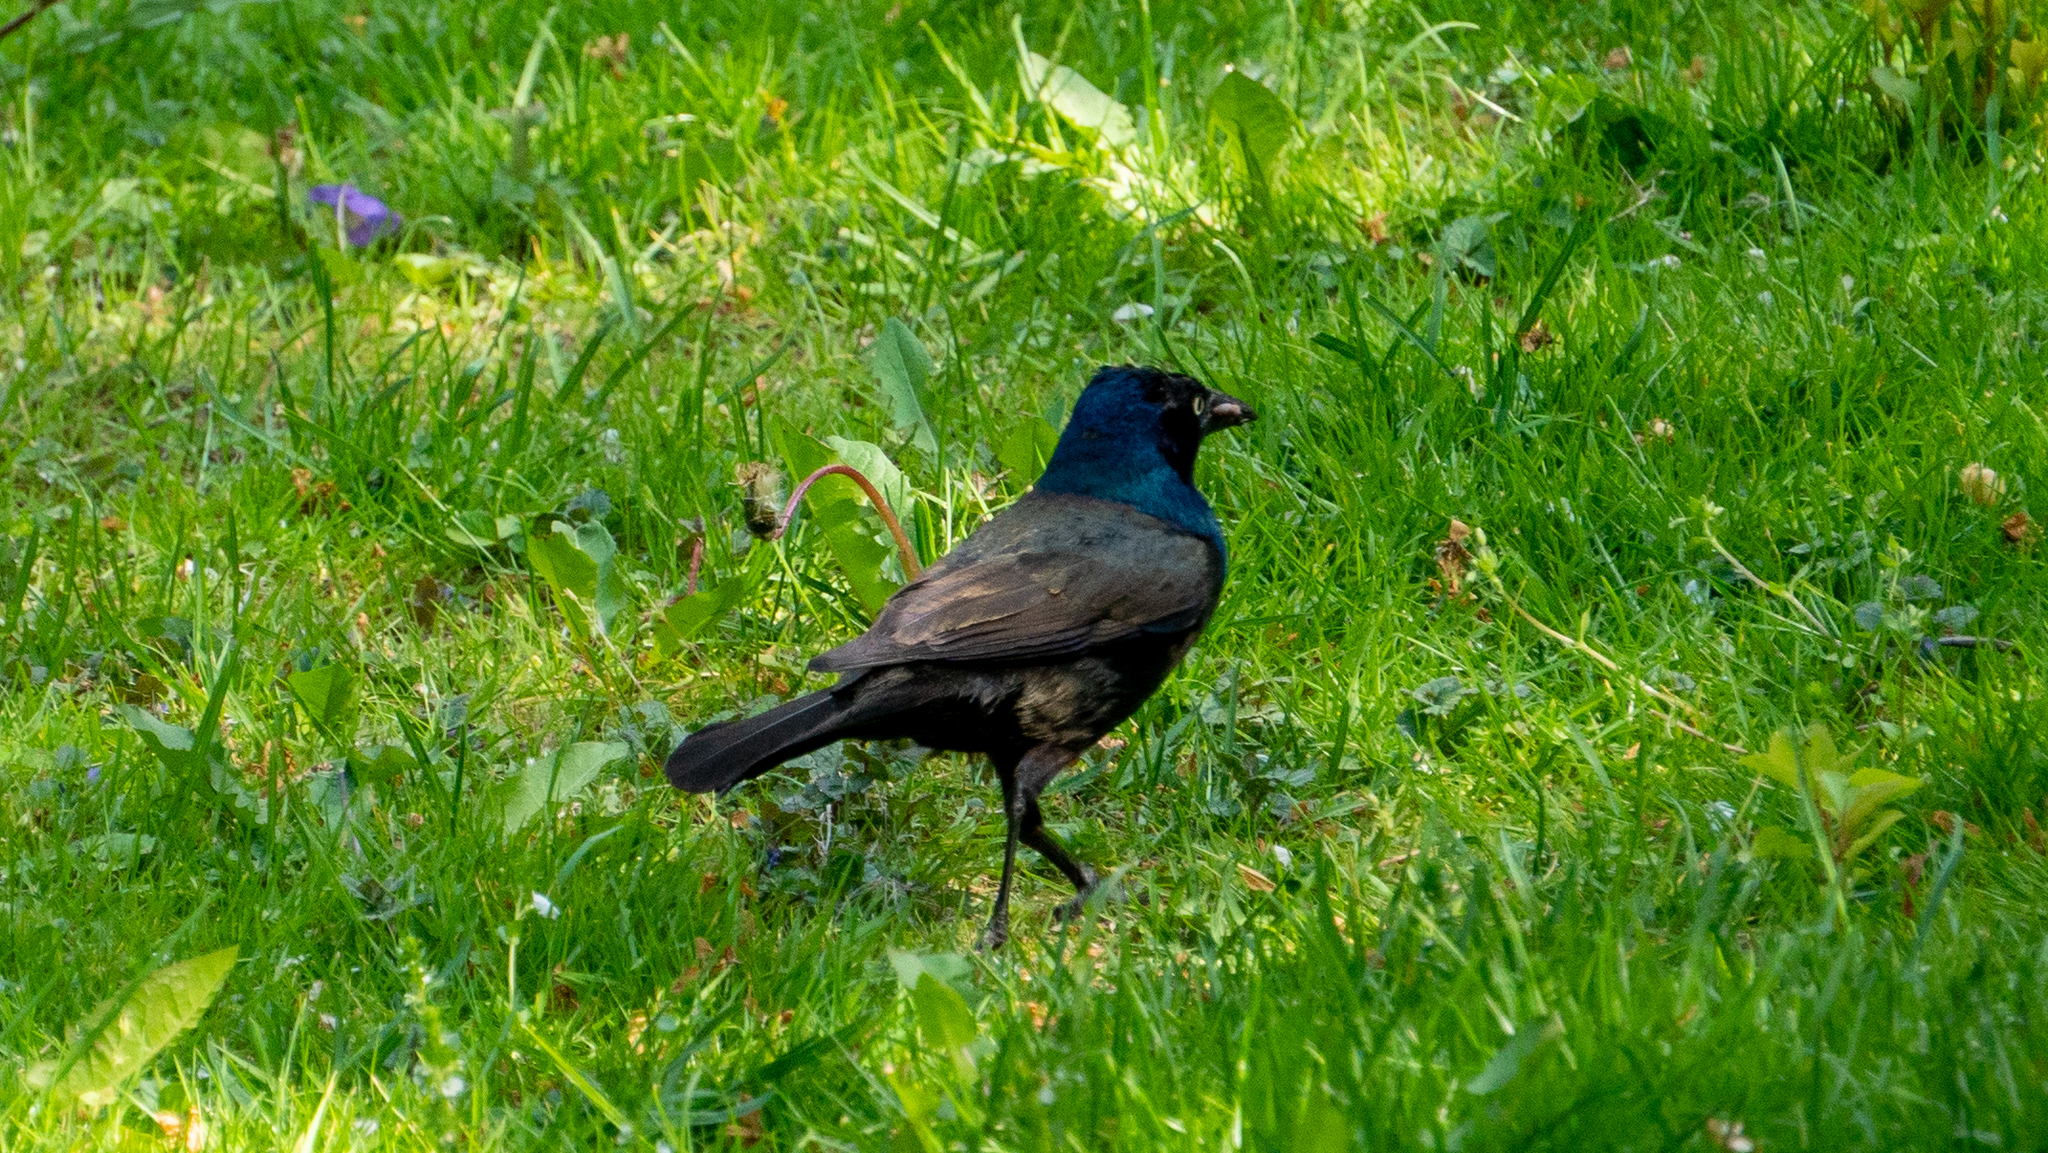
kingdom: Animalia
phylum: Chordata
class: Aves
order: Passeriformes
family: Icteridae
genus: Quiscalus
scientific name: Quiscalus quiscula
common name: Common grackle
